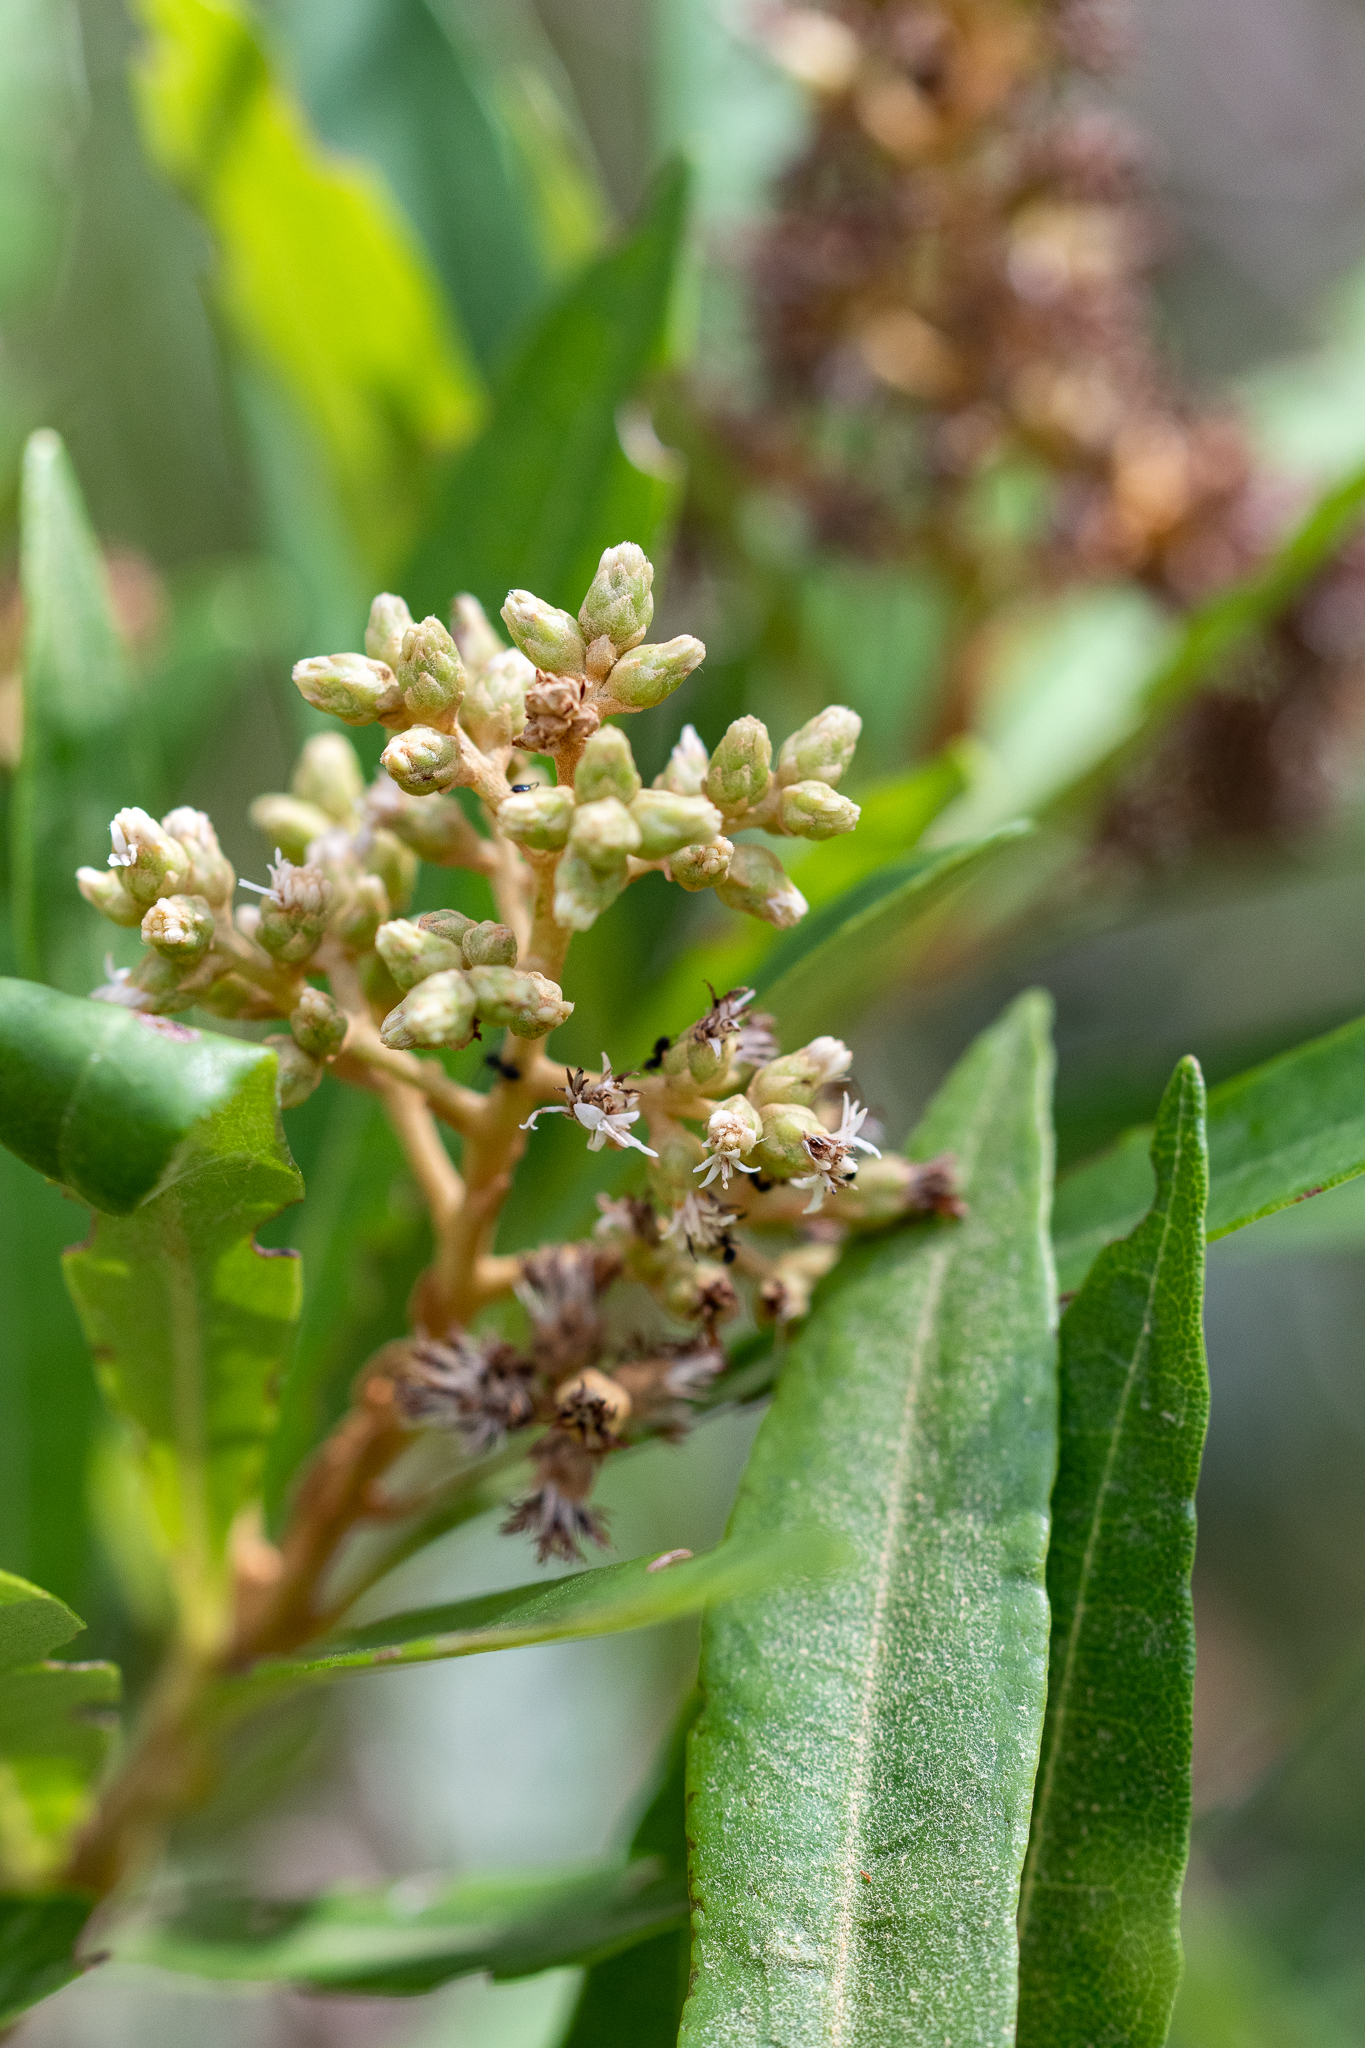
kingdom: Plantae
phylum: Tracheophyta
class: Magnoliopsida
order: Asterales
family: Asteraceae
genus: Brachylaena
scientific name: Brachylaena neriifolia
